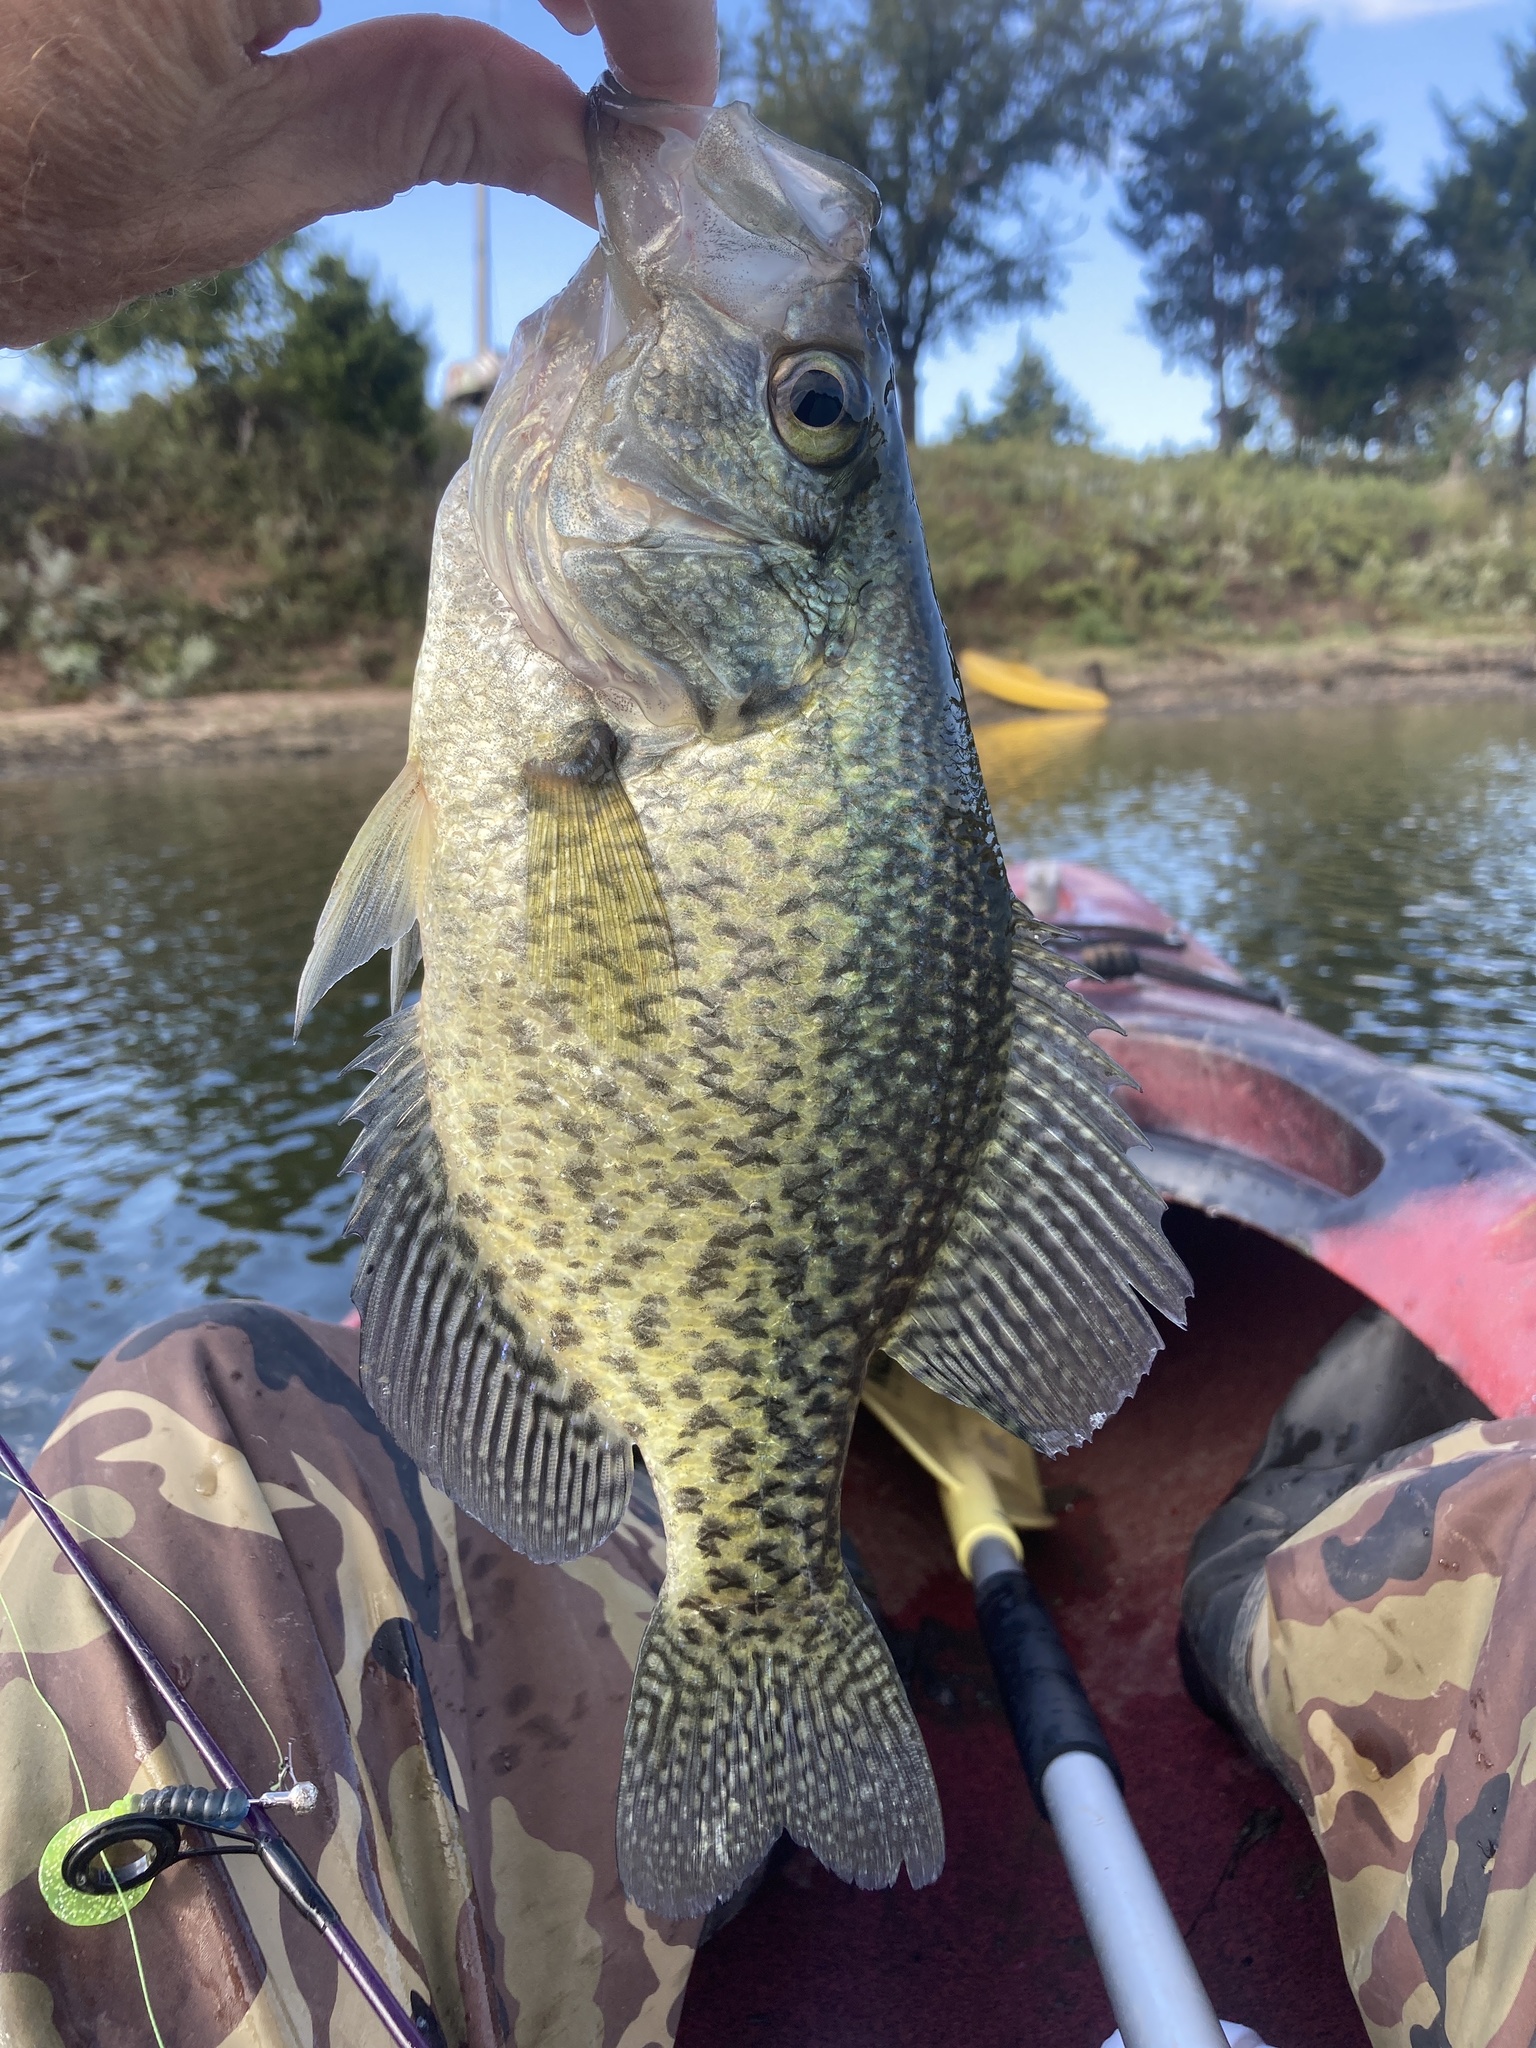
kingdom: Animalia
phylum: Chordata
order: Perciformes
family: Centrarchidae
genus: Pomoxis
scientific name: Pomoxis nigromaculatus
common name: Black crappie
